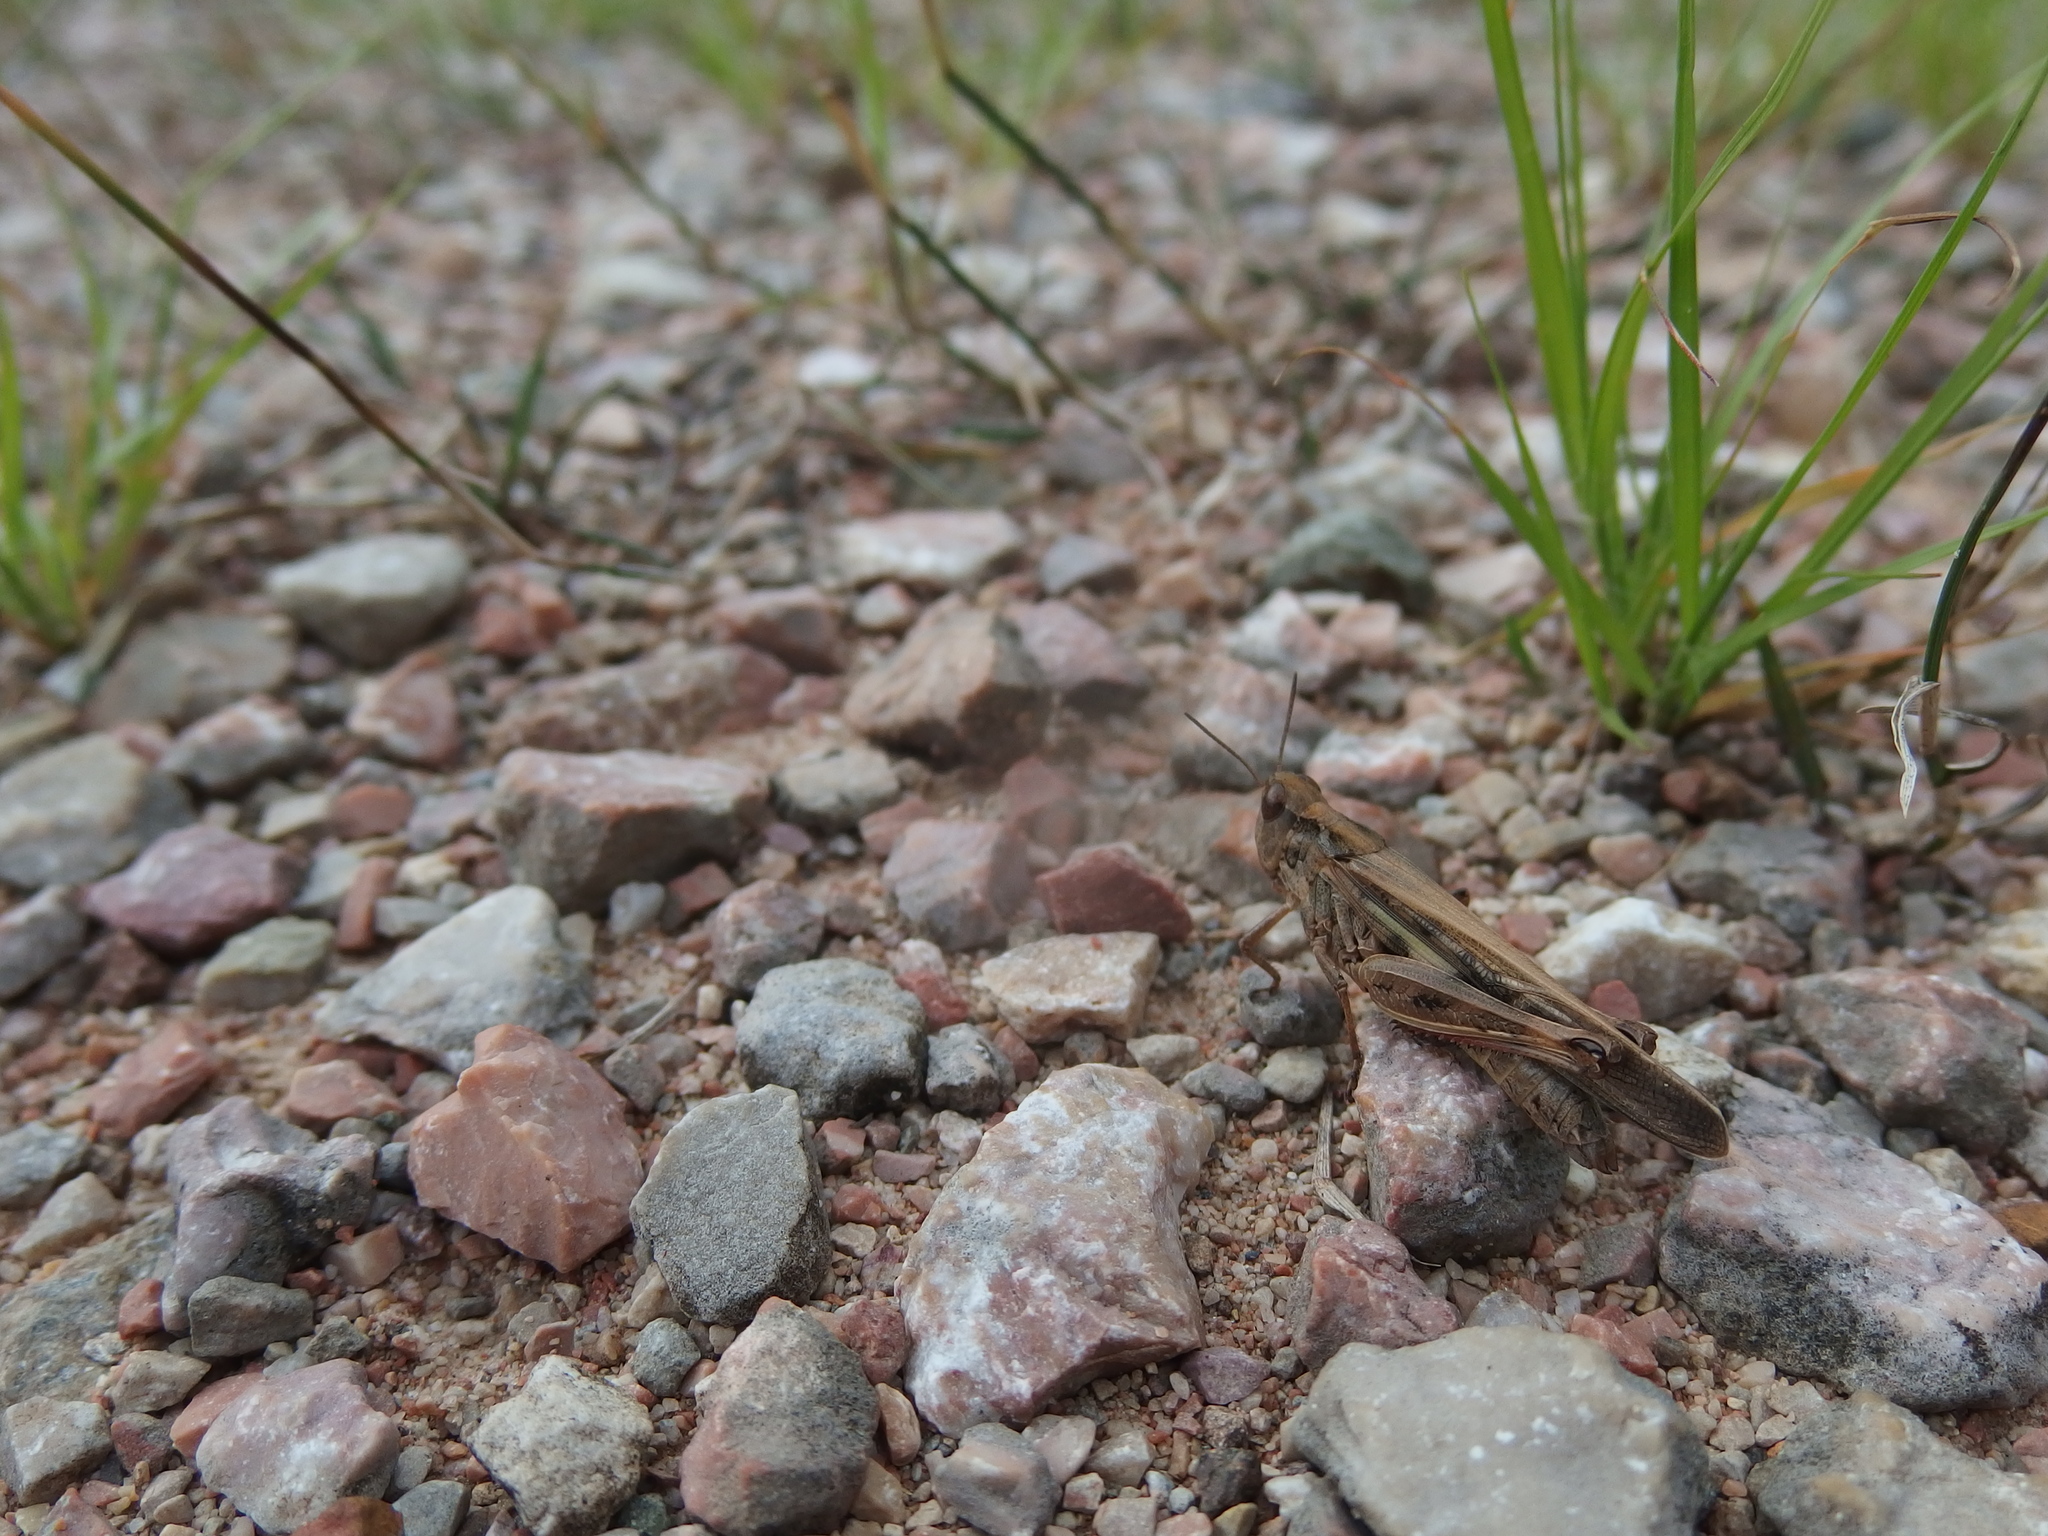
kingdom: Animalia
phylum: Arthropoda
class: Insecta
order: Orthoptera
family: Acrididae
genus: Aiolopus
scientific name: Aiolopus thalassinus
